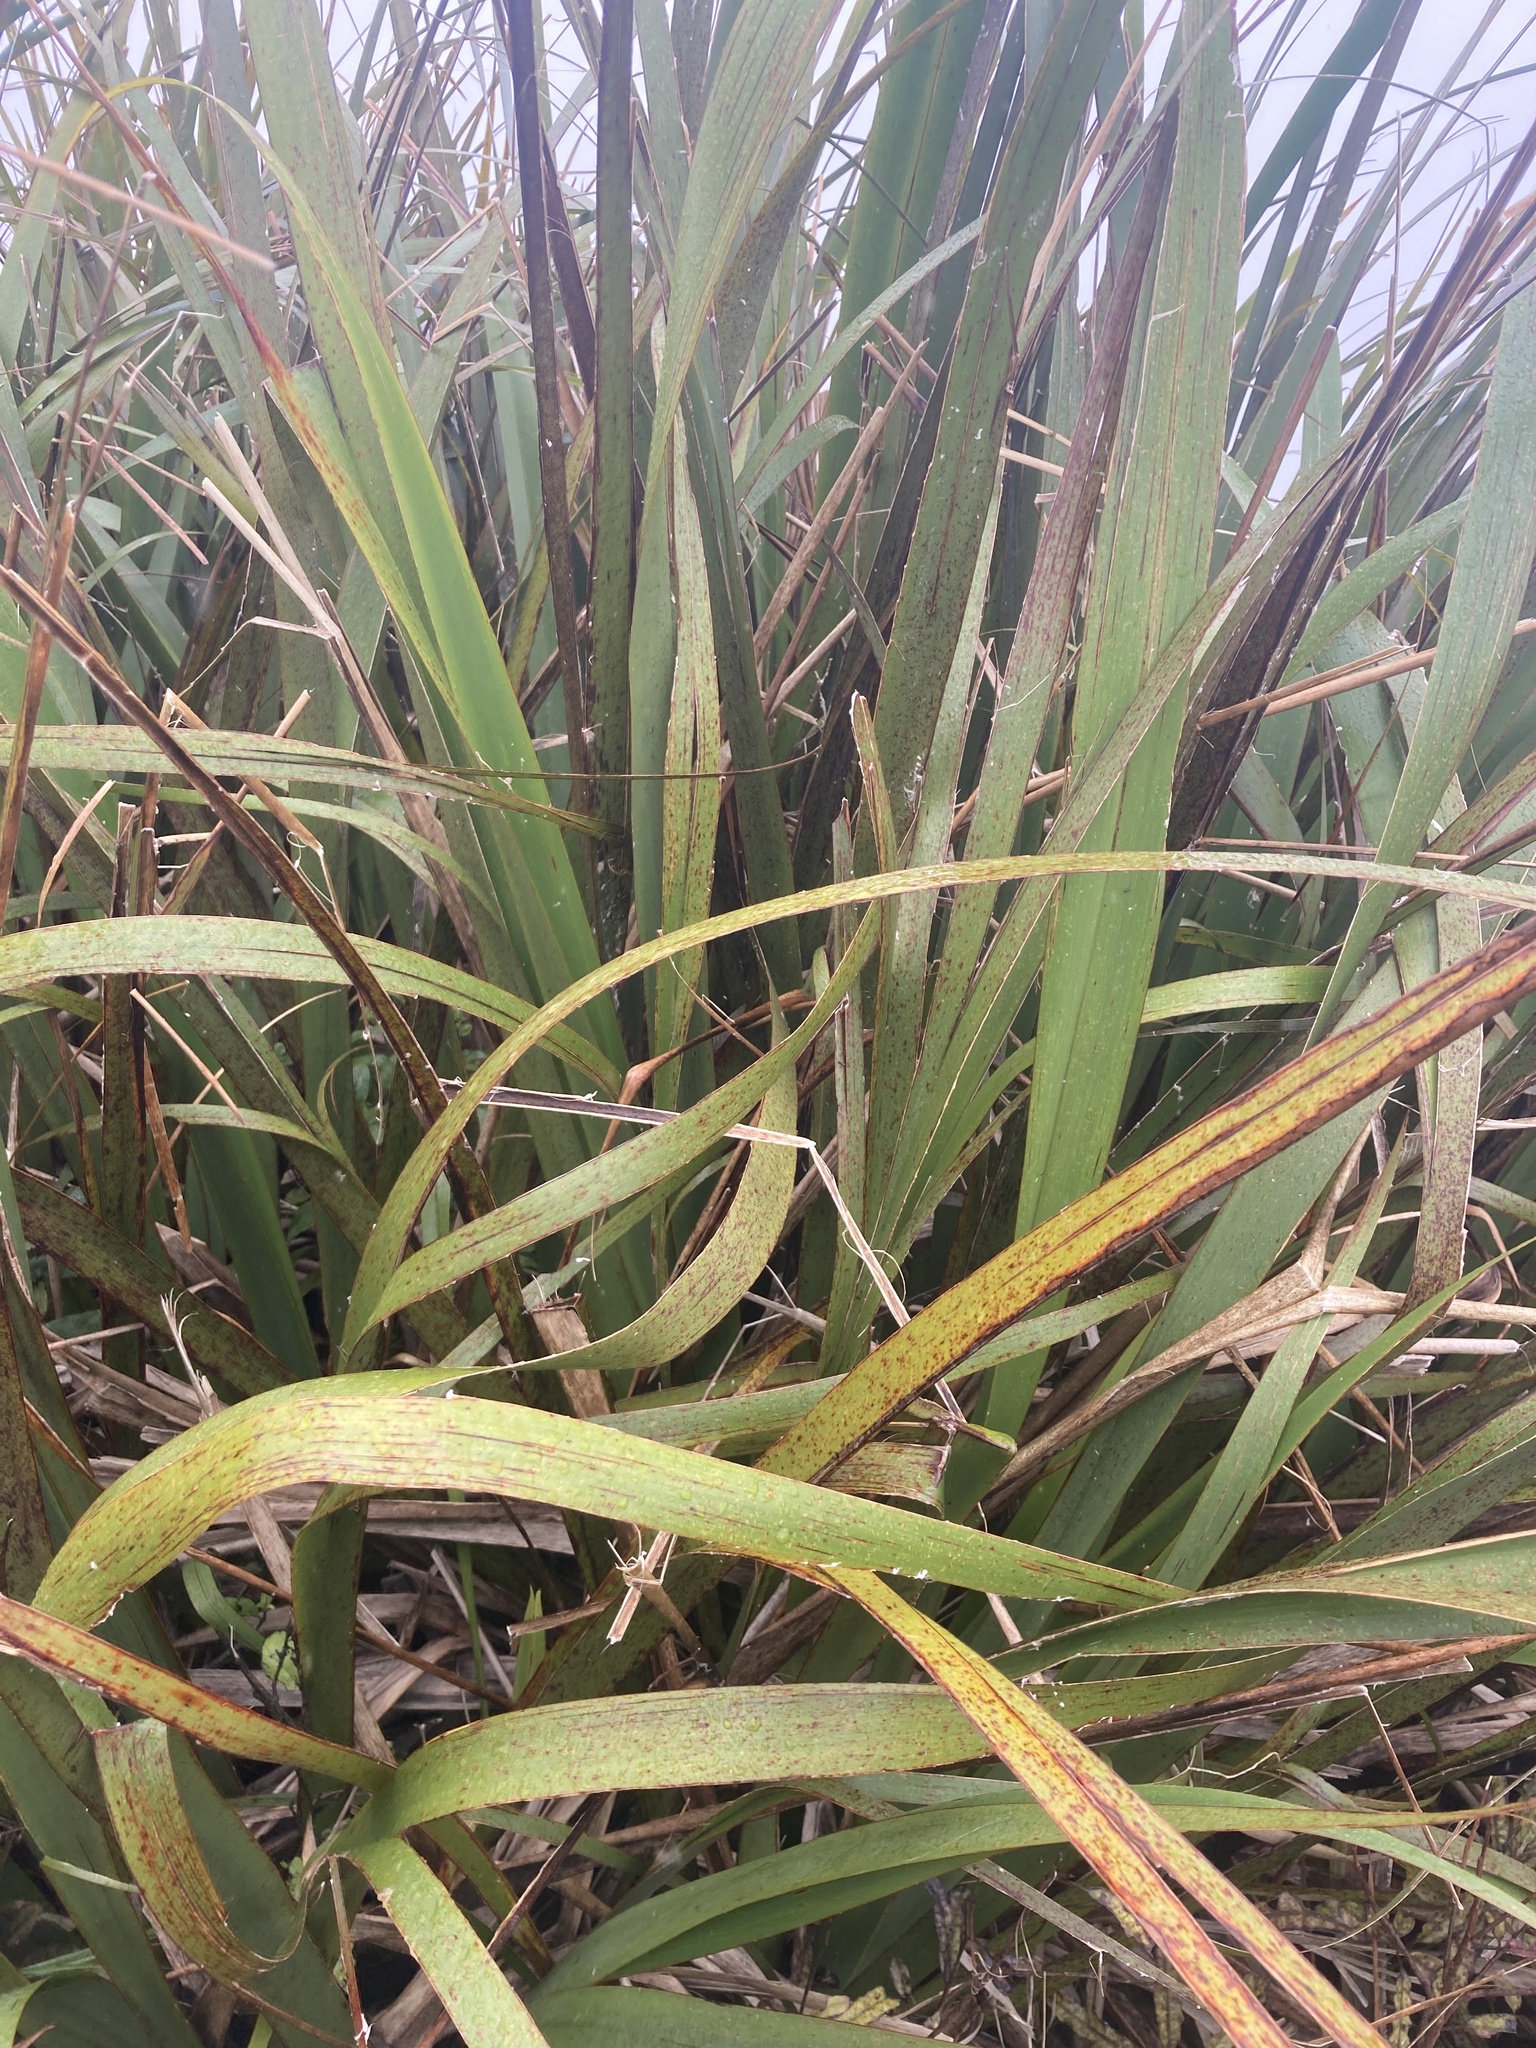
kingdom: Plantae
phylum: Tracheophyta
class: Liliopsida
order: Asparagales
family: Asphodelaceae
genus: Phormium
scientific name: Phormium colensoi
